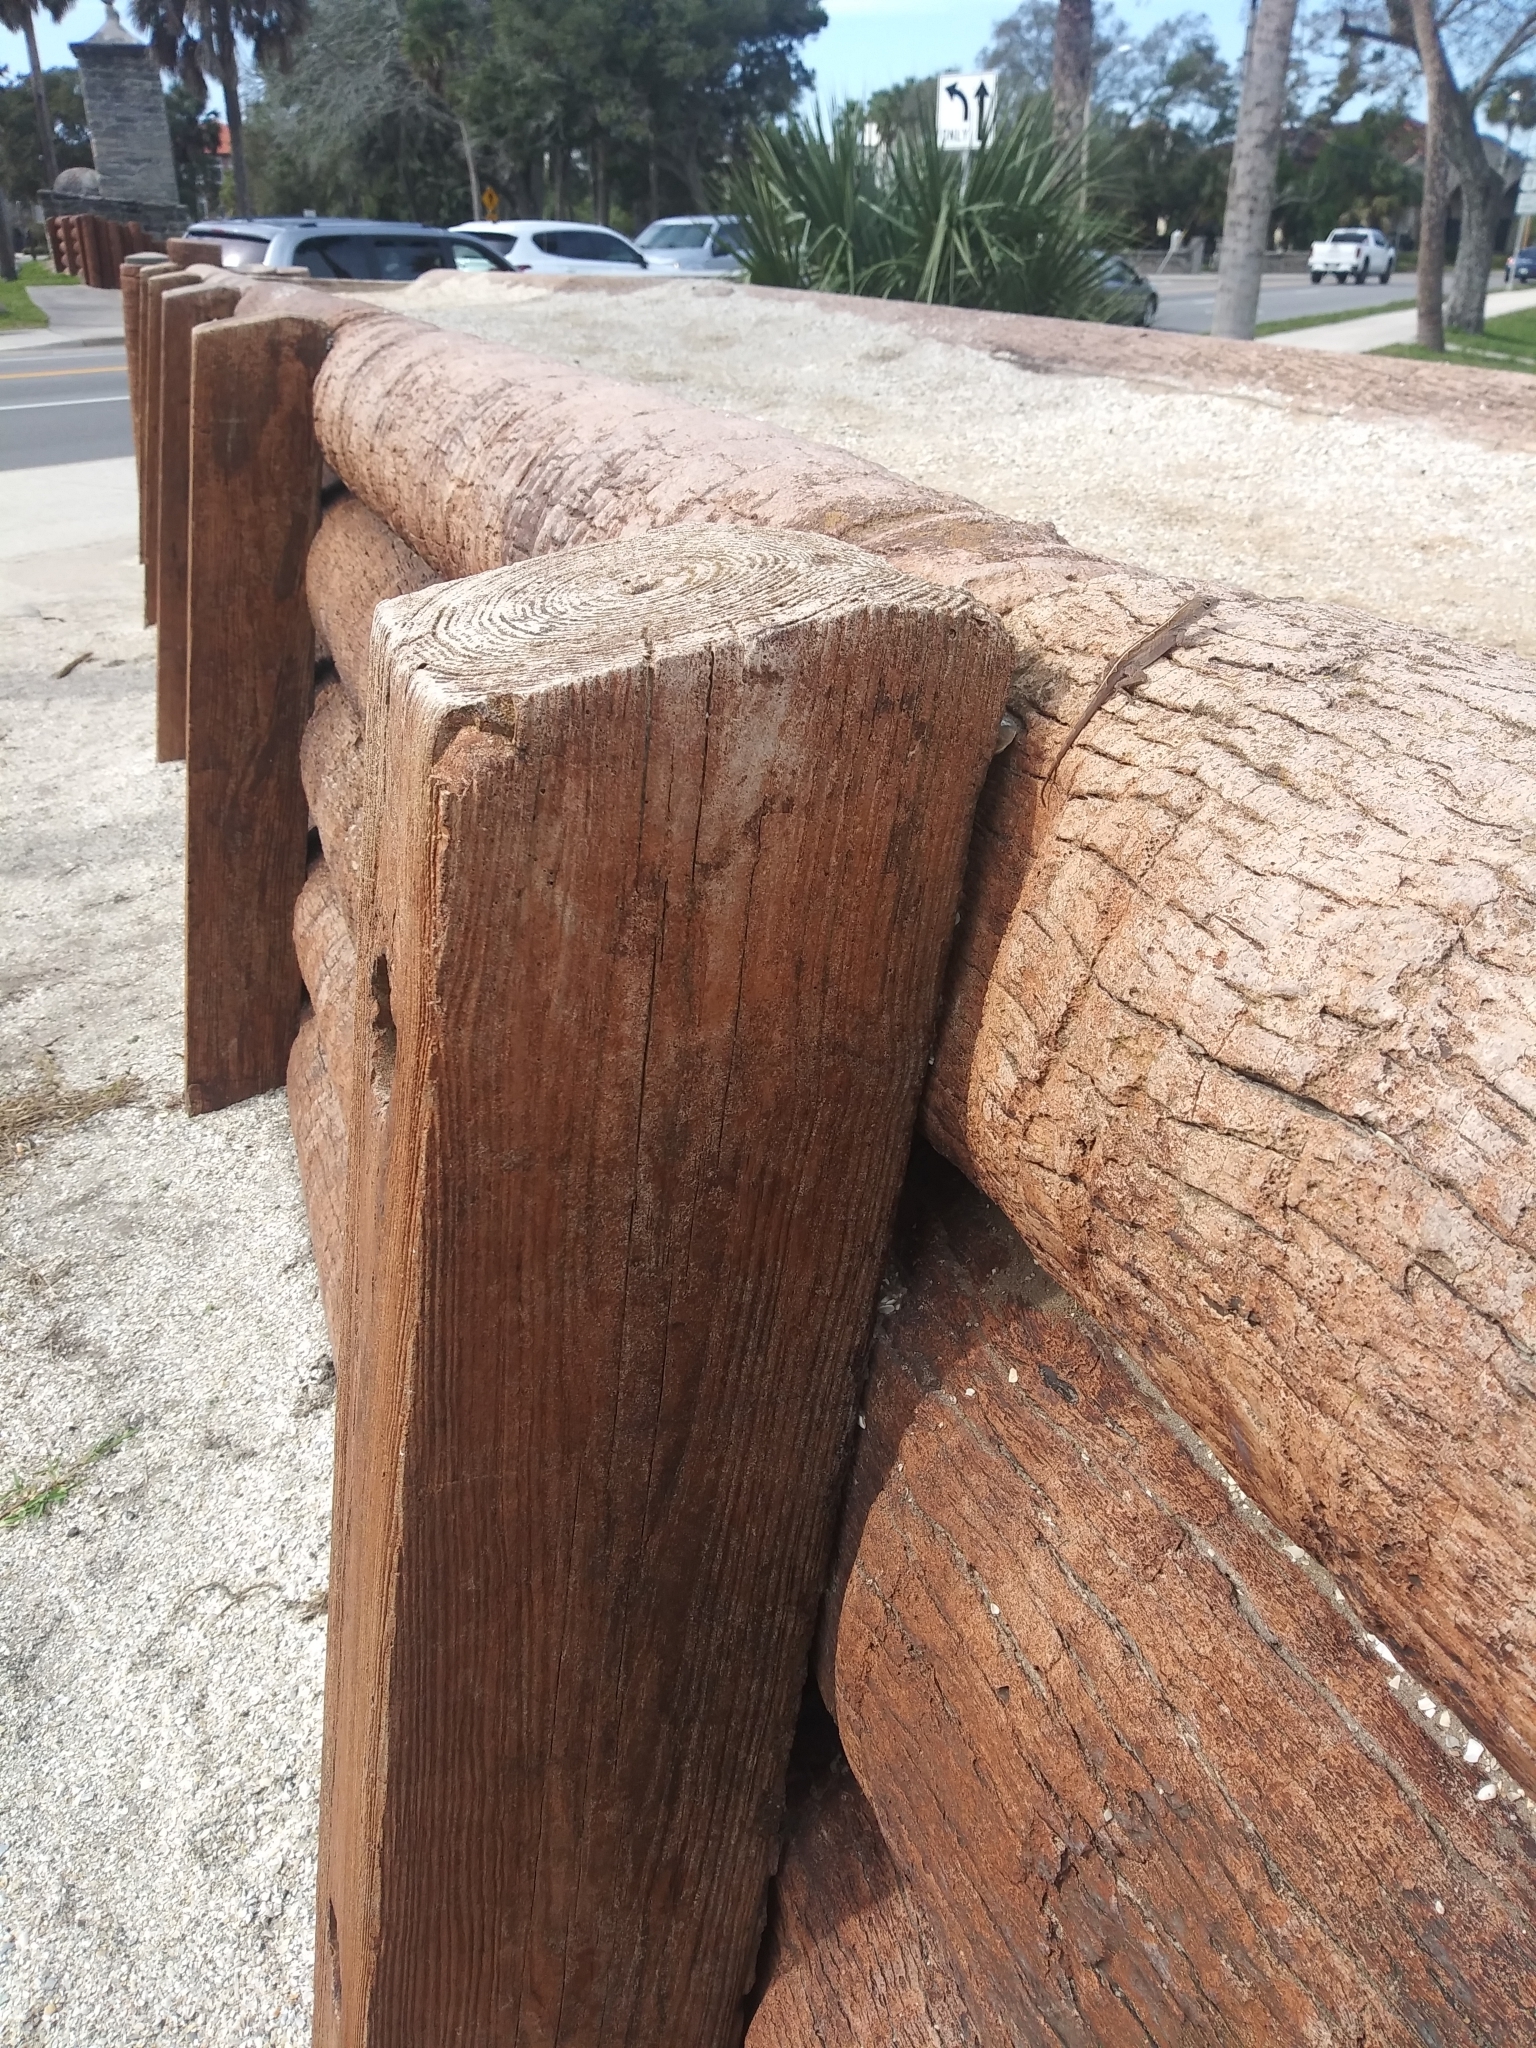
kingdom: Animalia
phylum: Chordata
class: Squamata
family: Dactyloidae
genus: Anolis
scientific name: Anolis sagrei
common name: Brown anole
